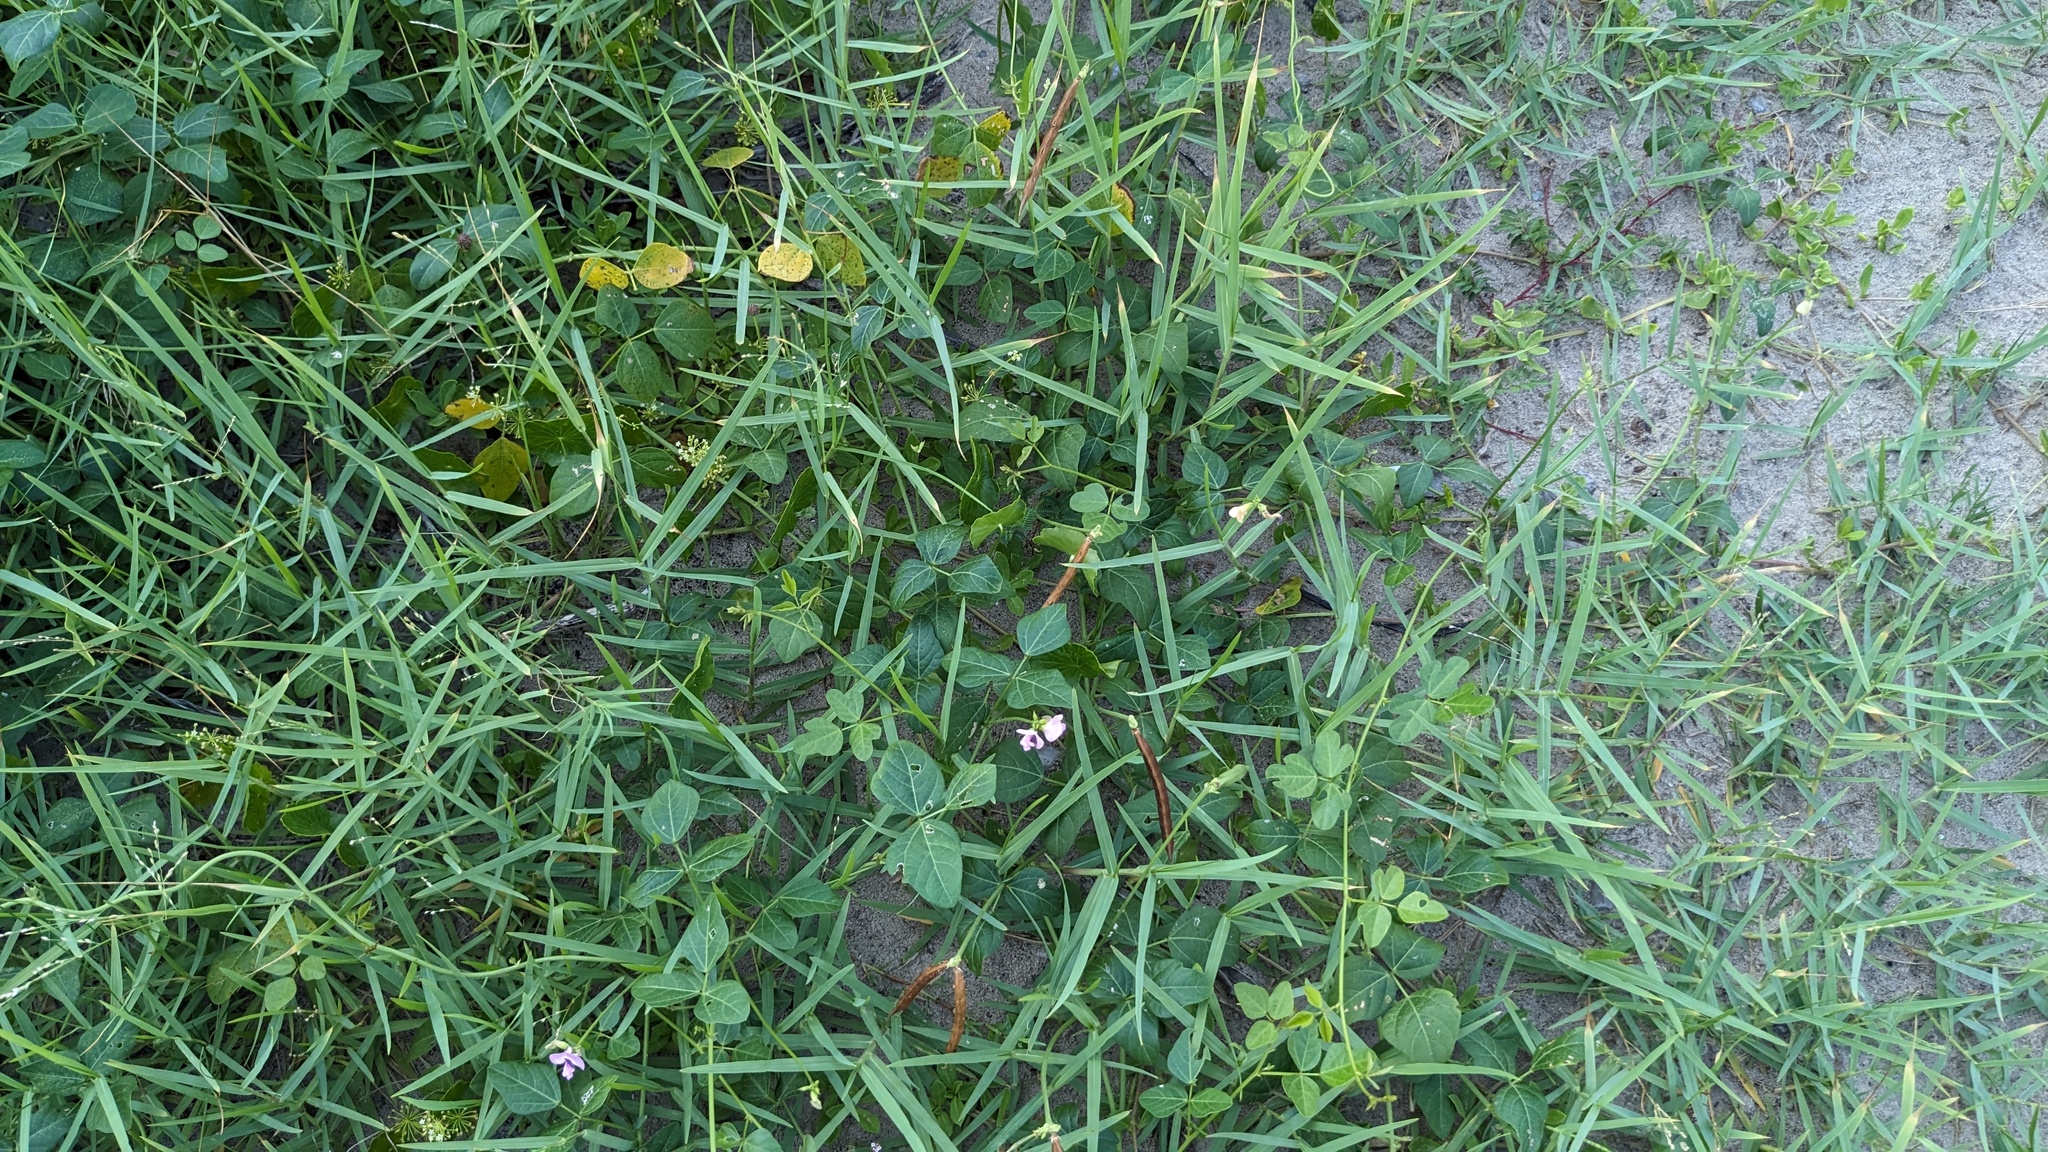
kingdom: Plantae
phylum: Tracheophyta
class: Magnoliopsida
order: Fabales
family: Fabaceae
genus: Strophostyles
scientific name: Strophostyles helvola
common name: Trailing wild bean
